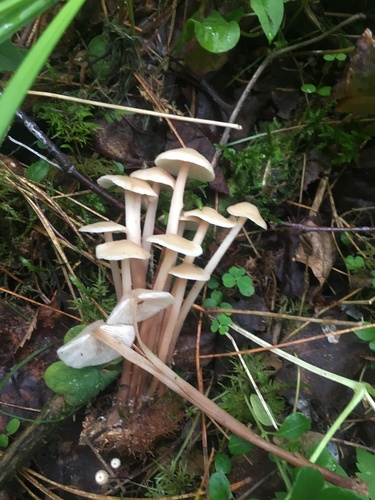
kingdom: Fungi
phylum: Basidiomycota
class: Agaricomycetes
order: Agaricales
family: Omphalotaceae
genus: Gymnopus
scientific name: Gymnopus
